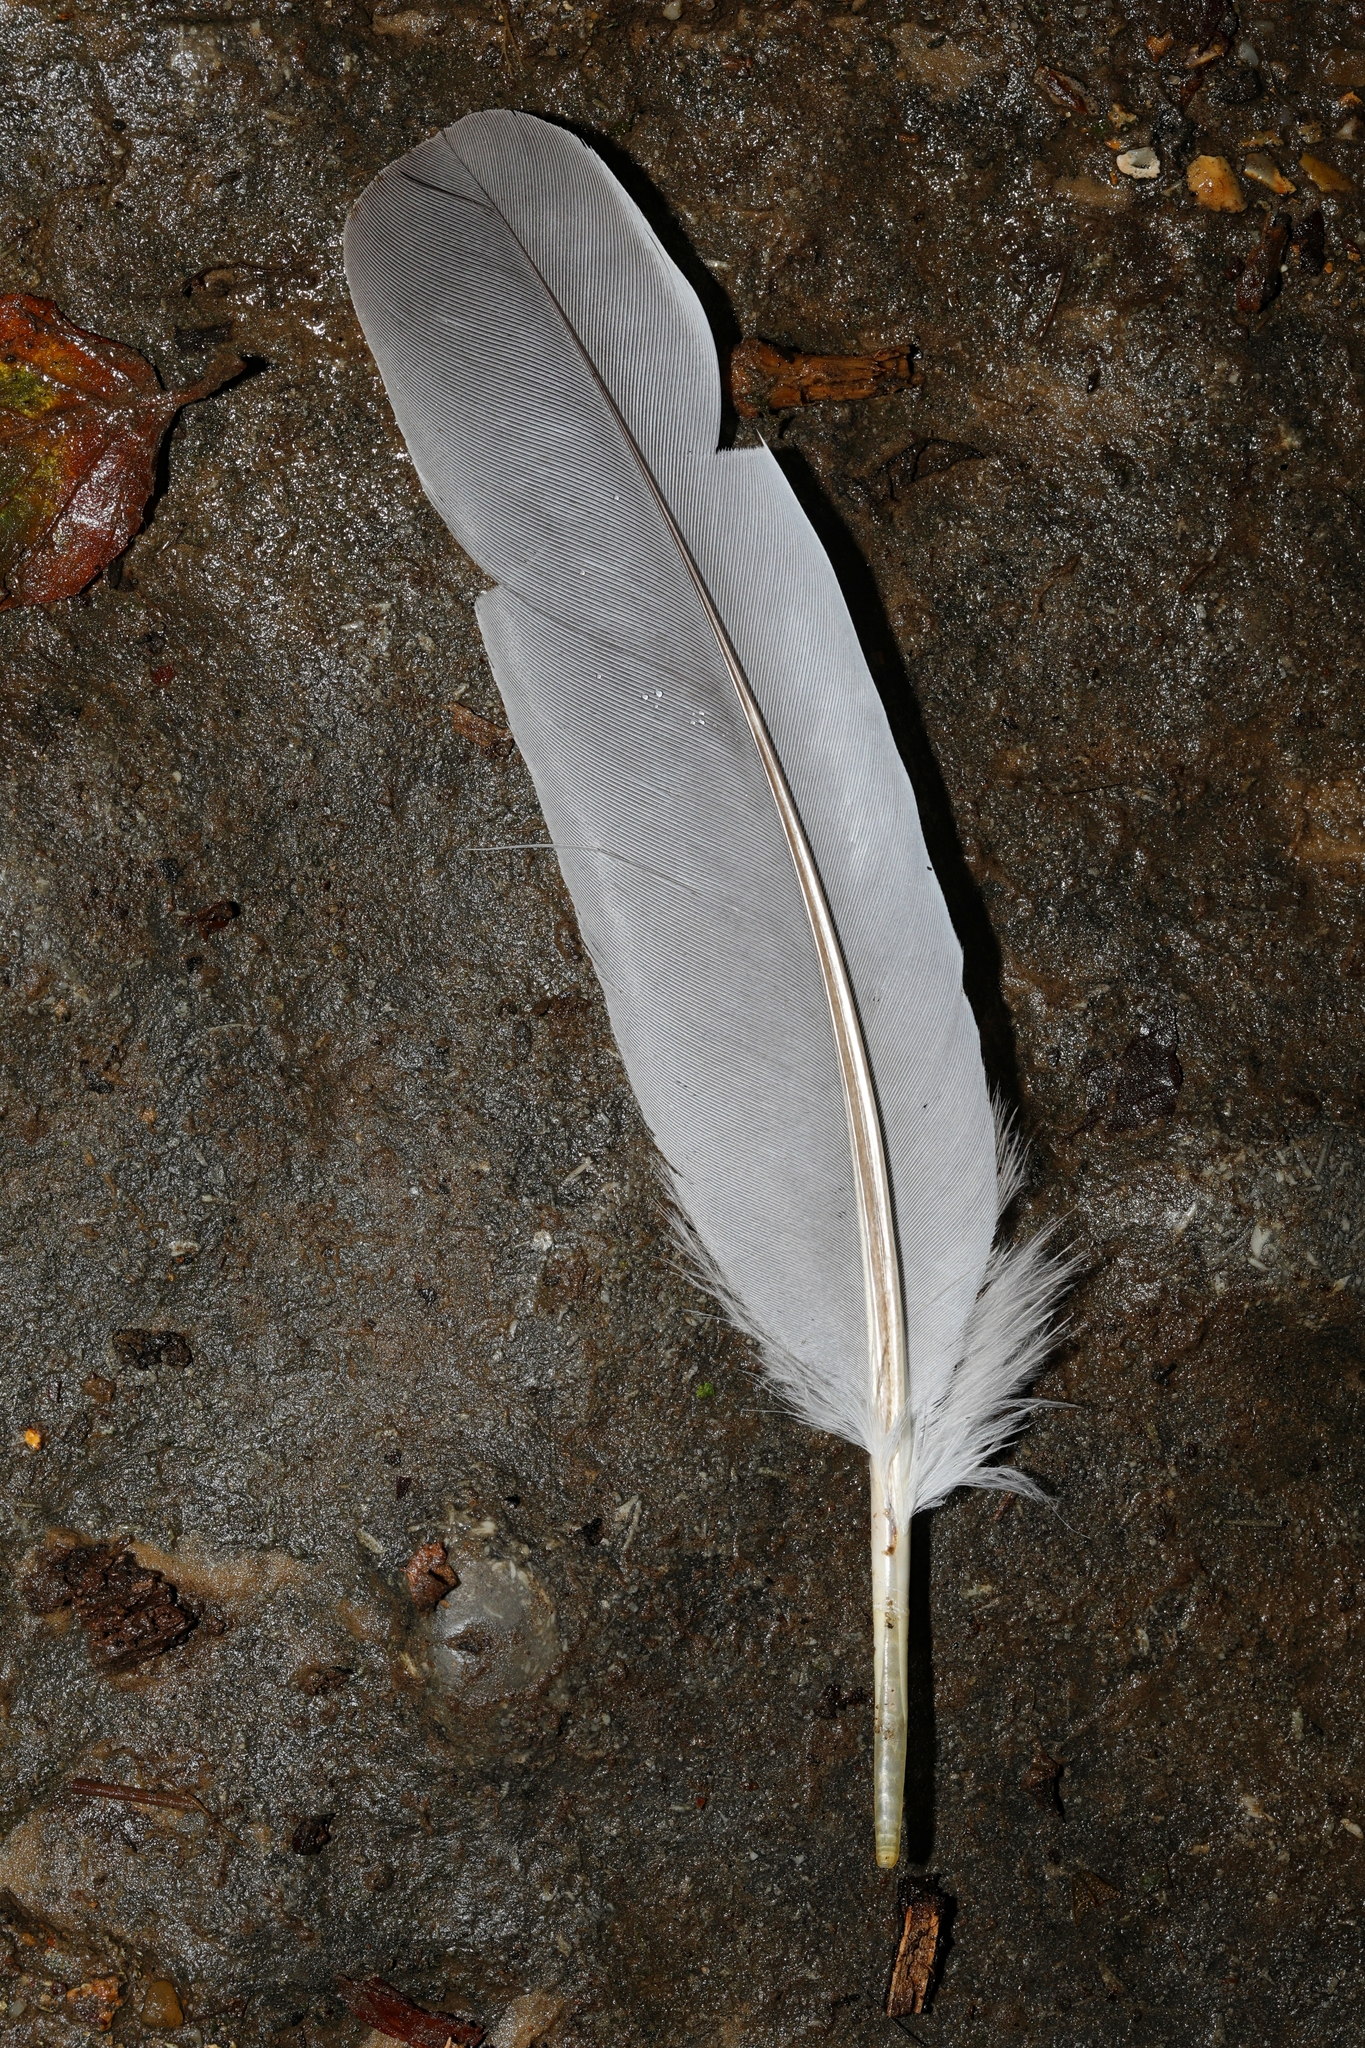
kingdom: Animalia
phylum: Chordata
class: Aves
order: Columbiformes
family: Columbidae
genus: Columba
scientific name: Columba palumbus
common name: Common wood pigeon
